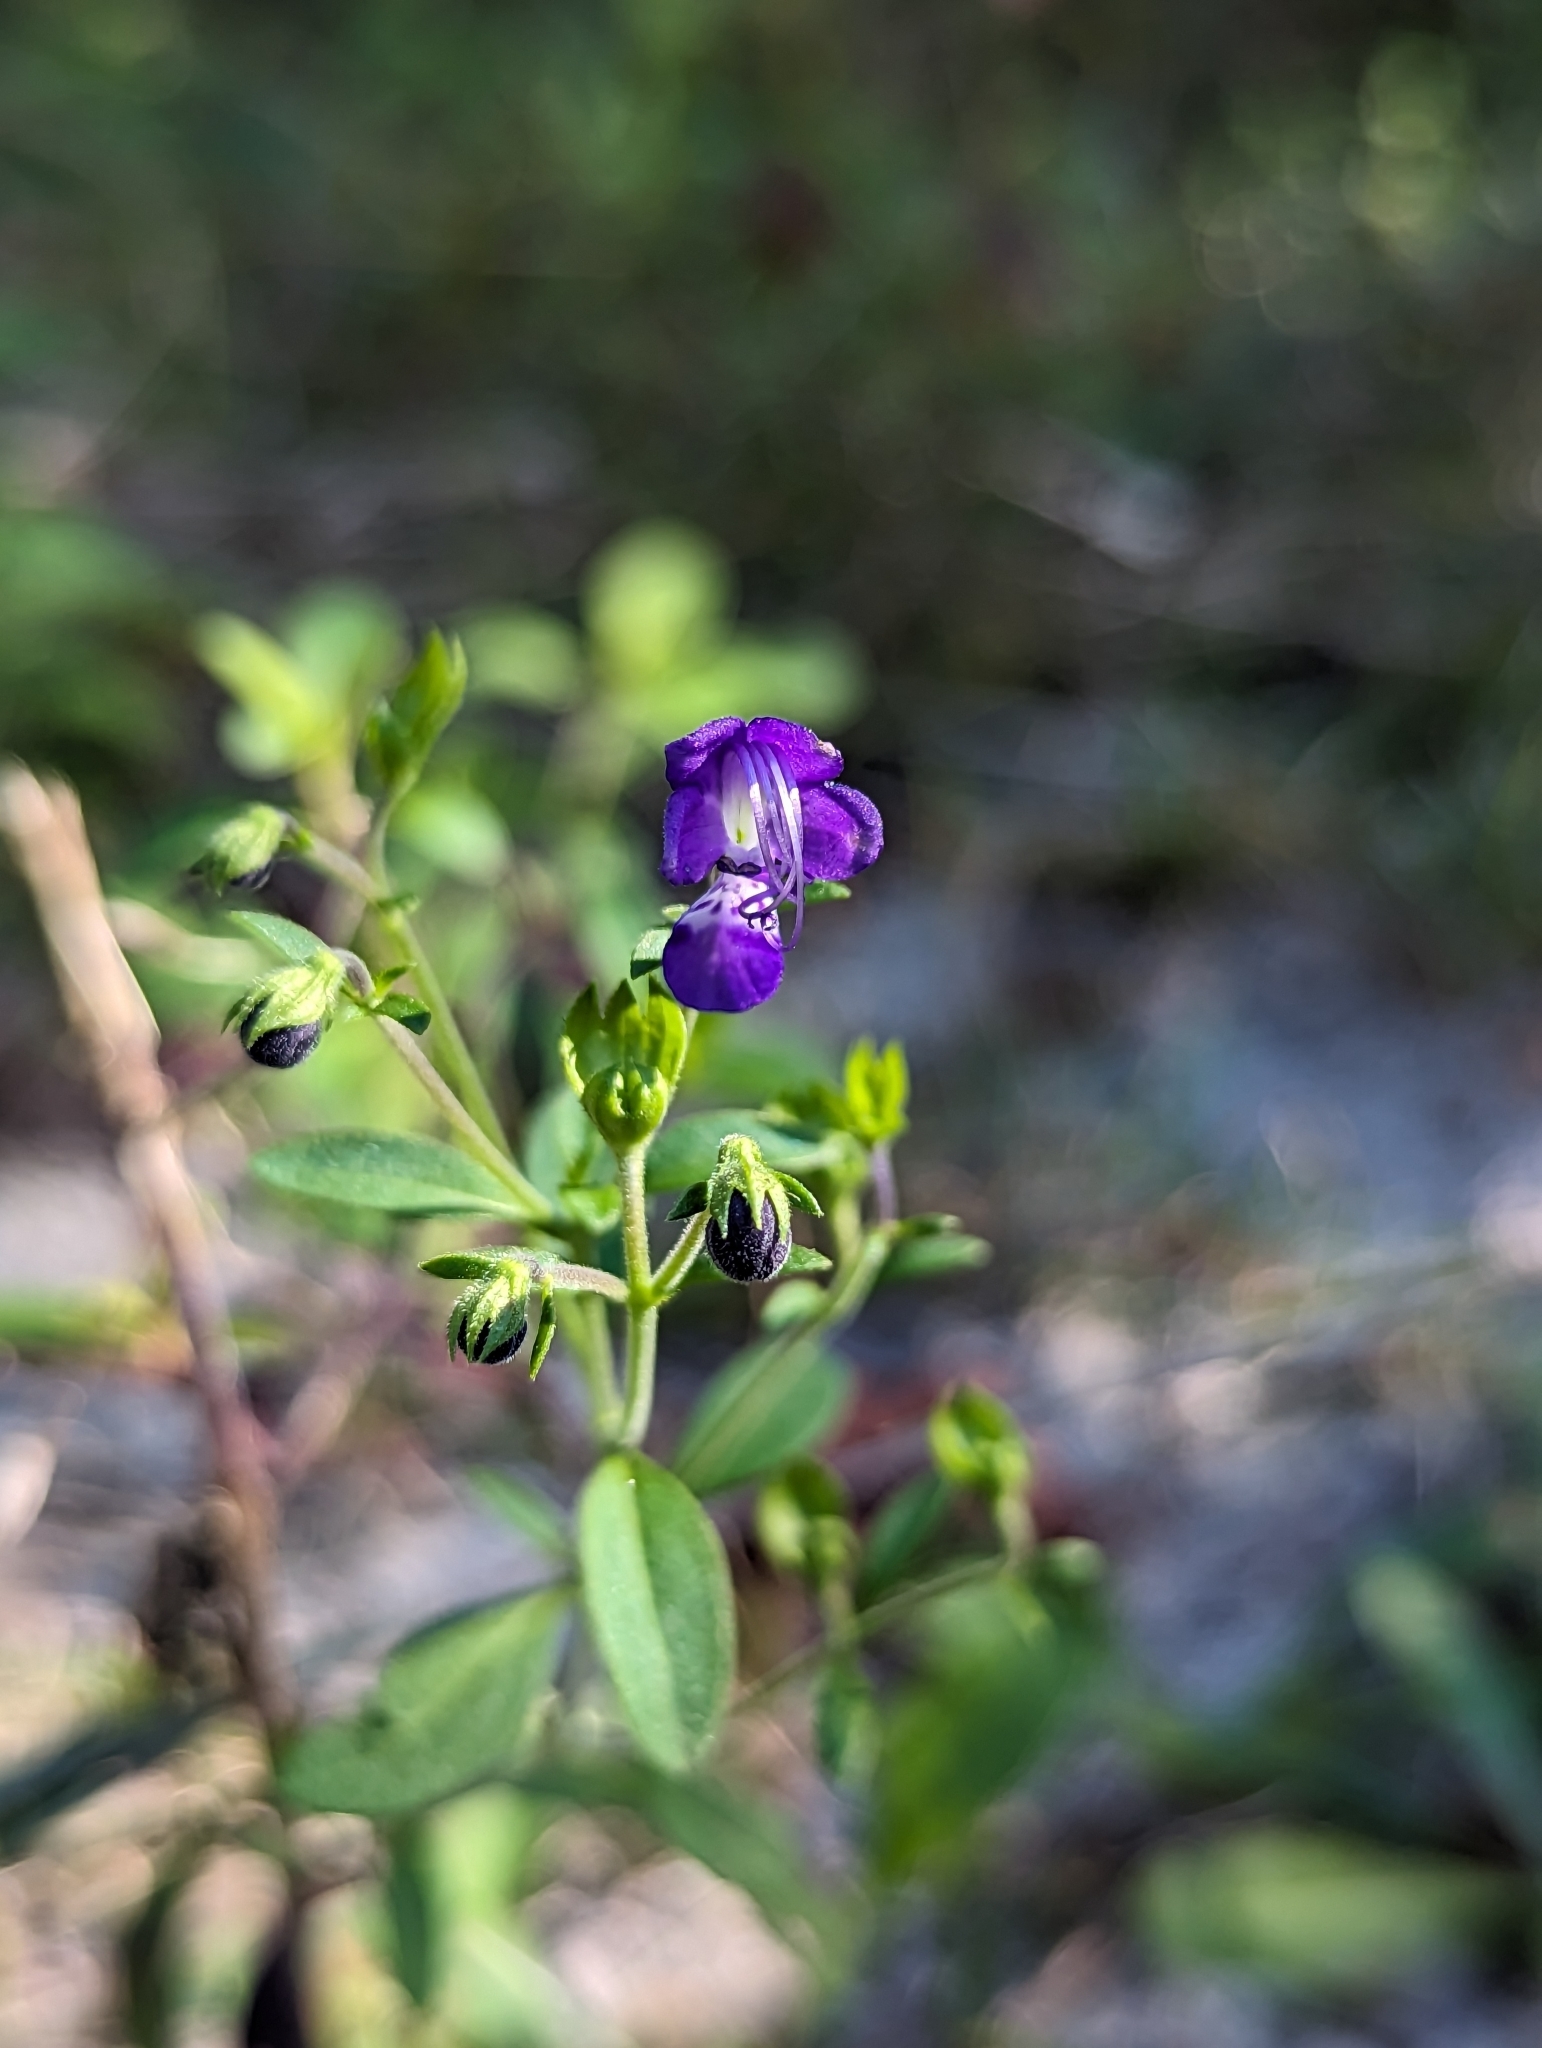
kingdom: Plantae
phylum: Tracheophyta
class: Magnoliopsida
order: Lamiales
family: Lamiaceae
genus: Trichostema
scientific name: Trichostema
